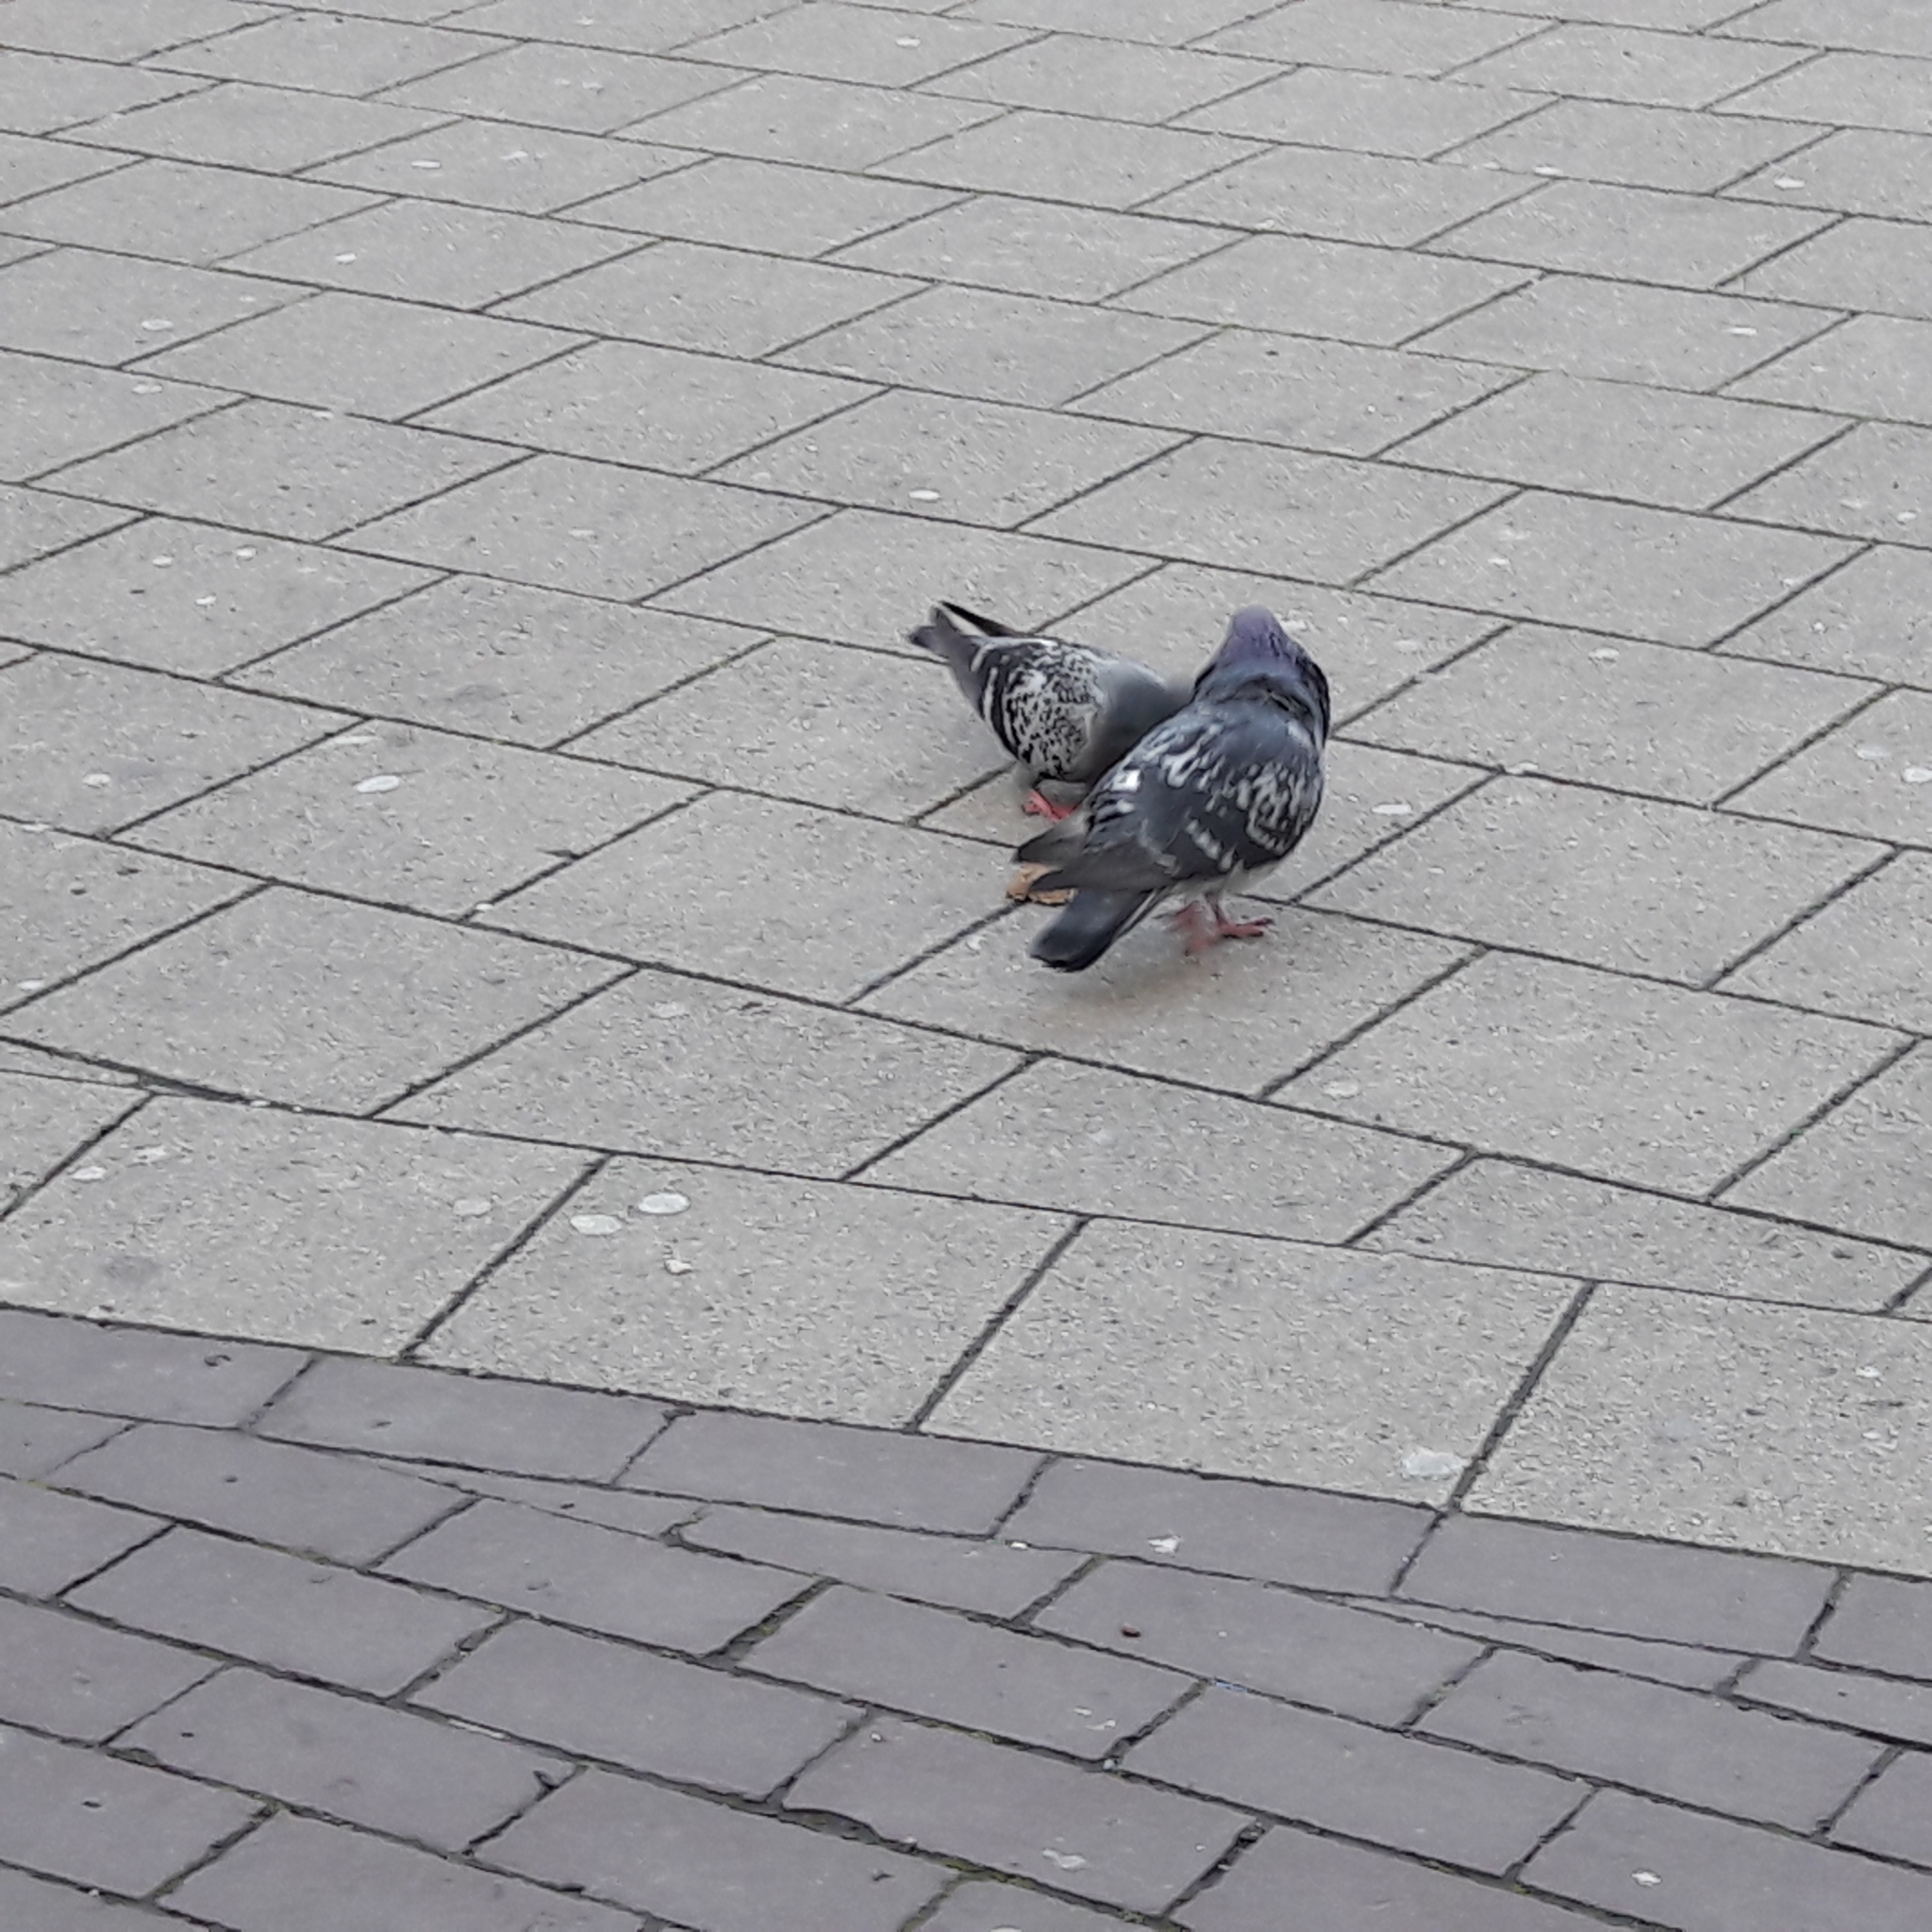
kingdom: Animalia
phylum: Chordata
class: Aves
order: Columbiformes
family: Columbidae
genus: Columba
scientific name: Columba livia
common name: Rock pigeon
